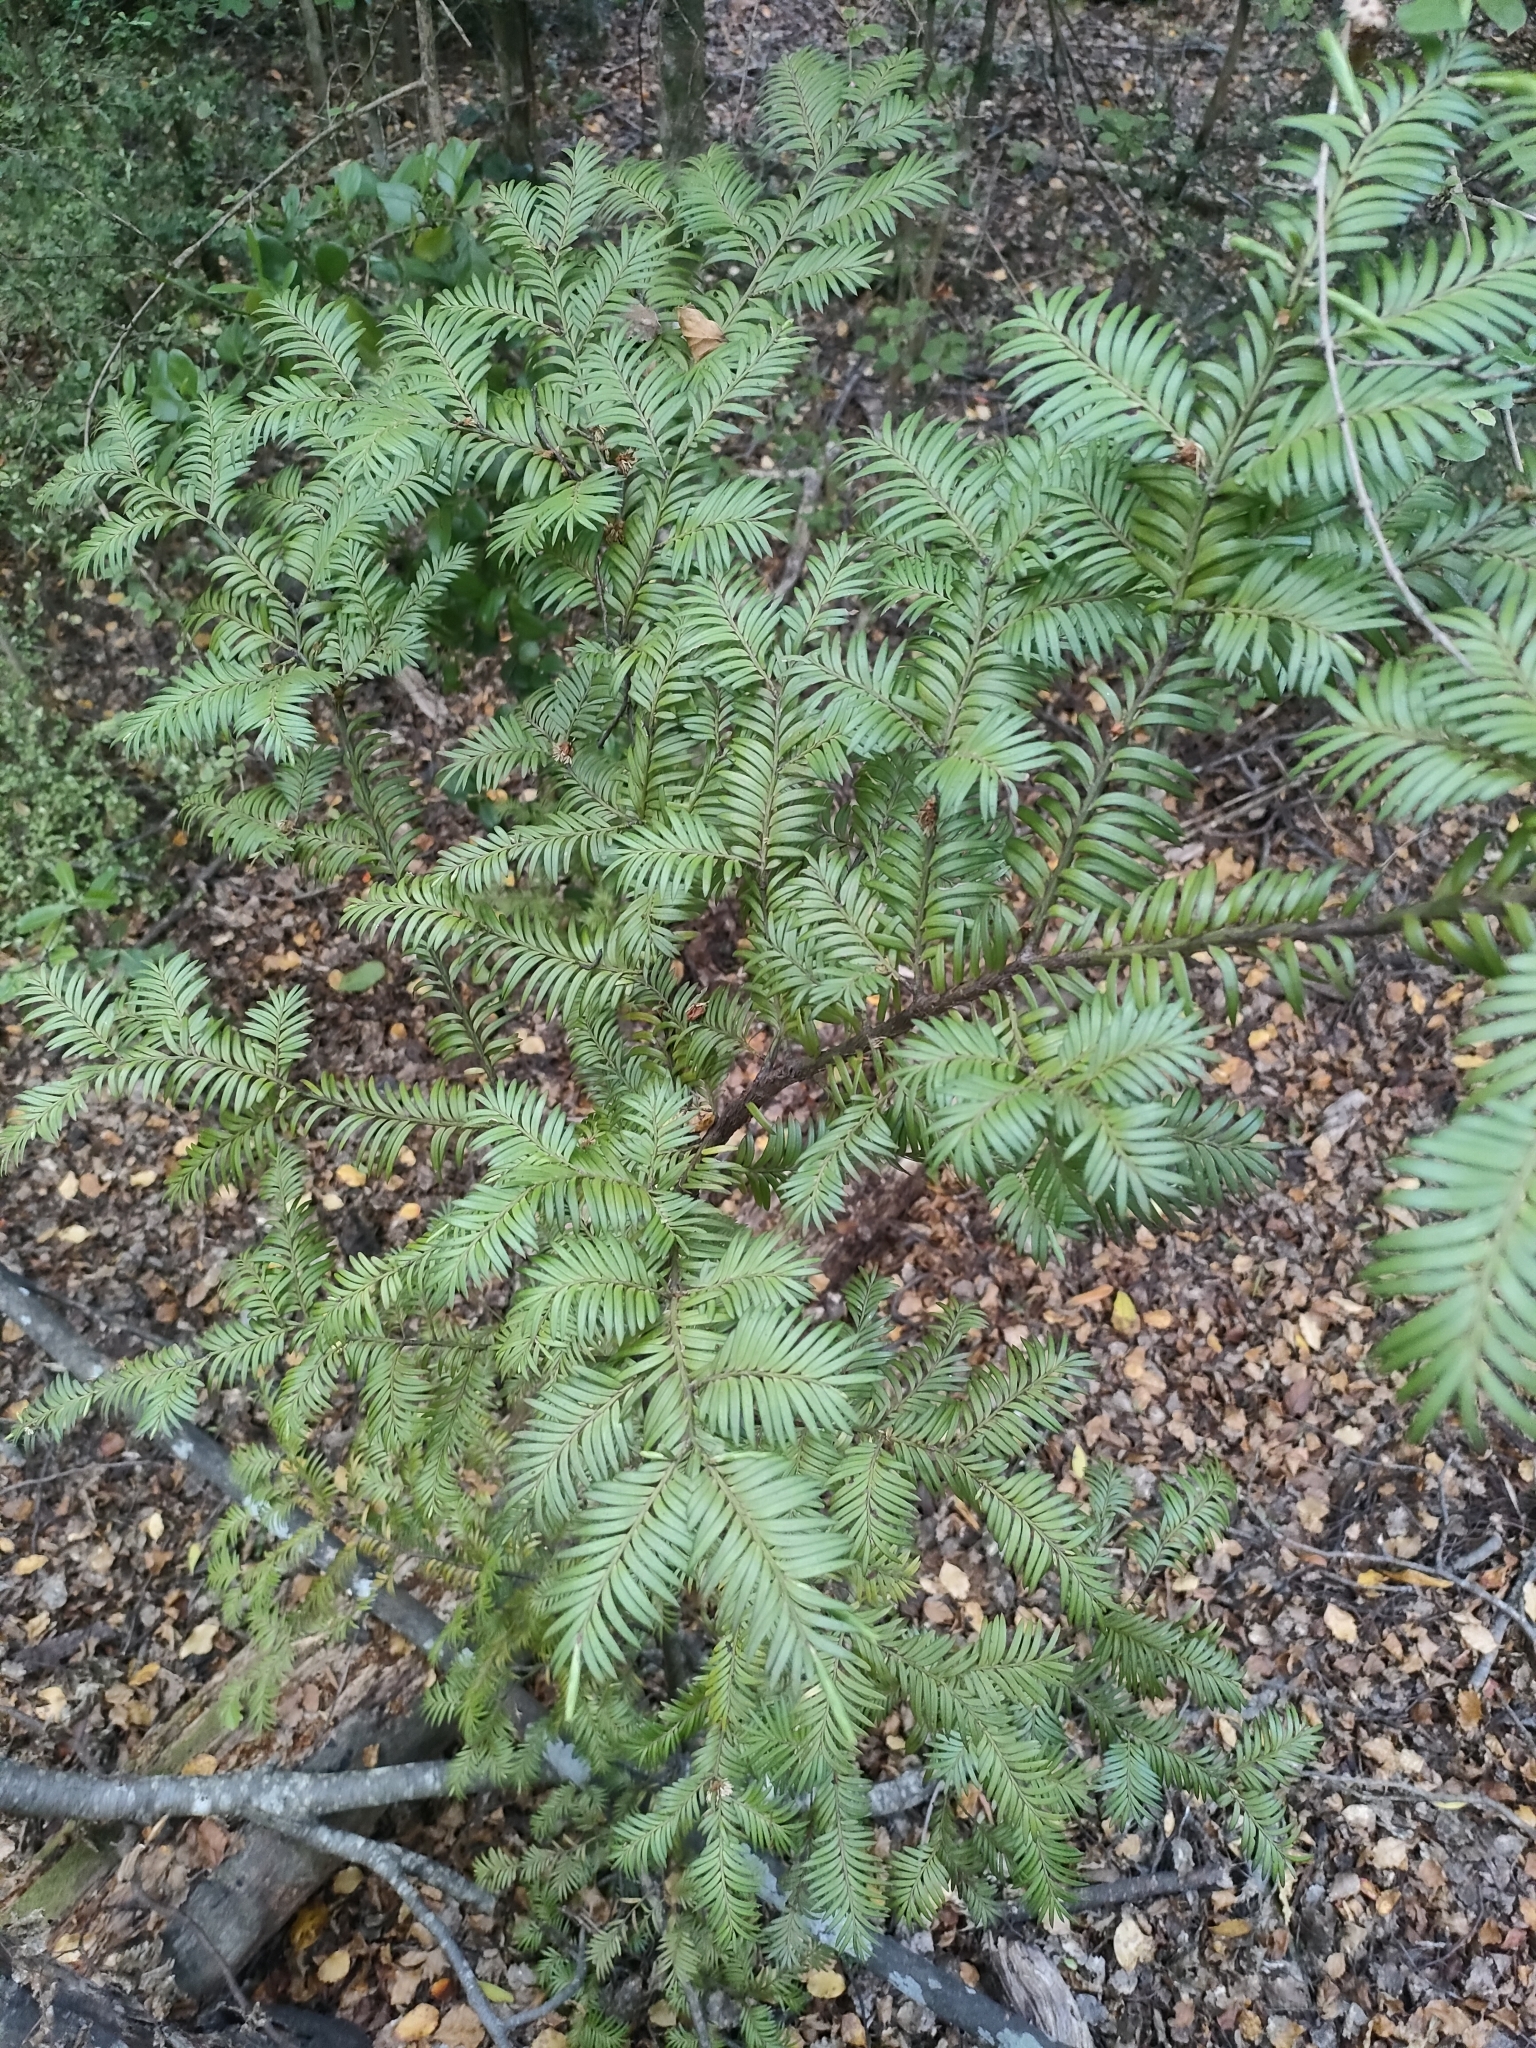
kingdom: Plantae
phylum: Tracheophyta
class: Pinopsida
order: Pinales
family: Podocarpaceae
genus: Prumnopitys
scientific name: Prumnopitys ferruginea
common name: Brown pine
